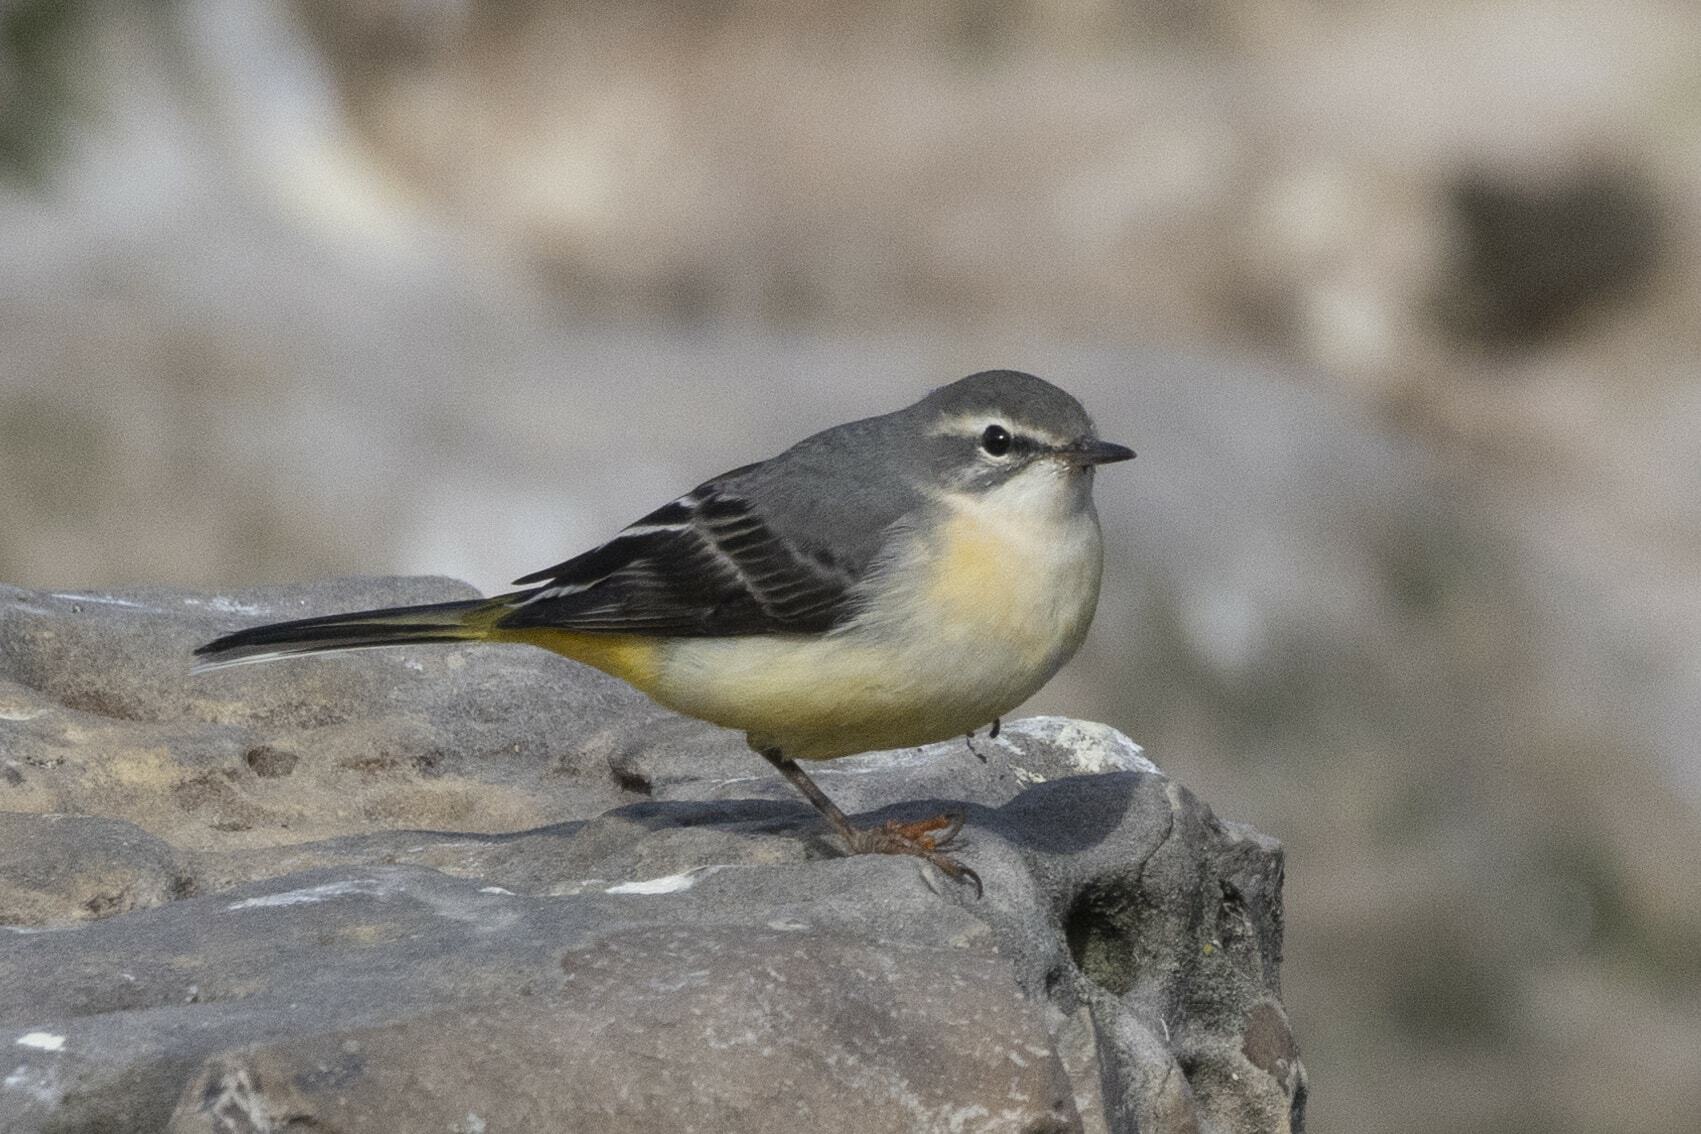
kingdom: Animalia
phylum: Chordata
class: Aves
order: Passeriformes
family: Motacillidae
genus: Motacilla
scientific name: Motacilla cinerea
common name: Grey wagtail
